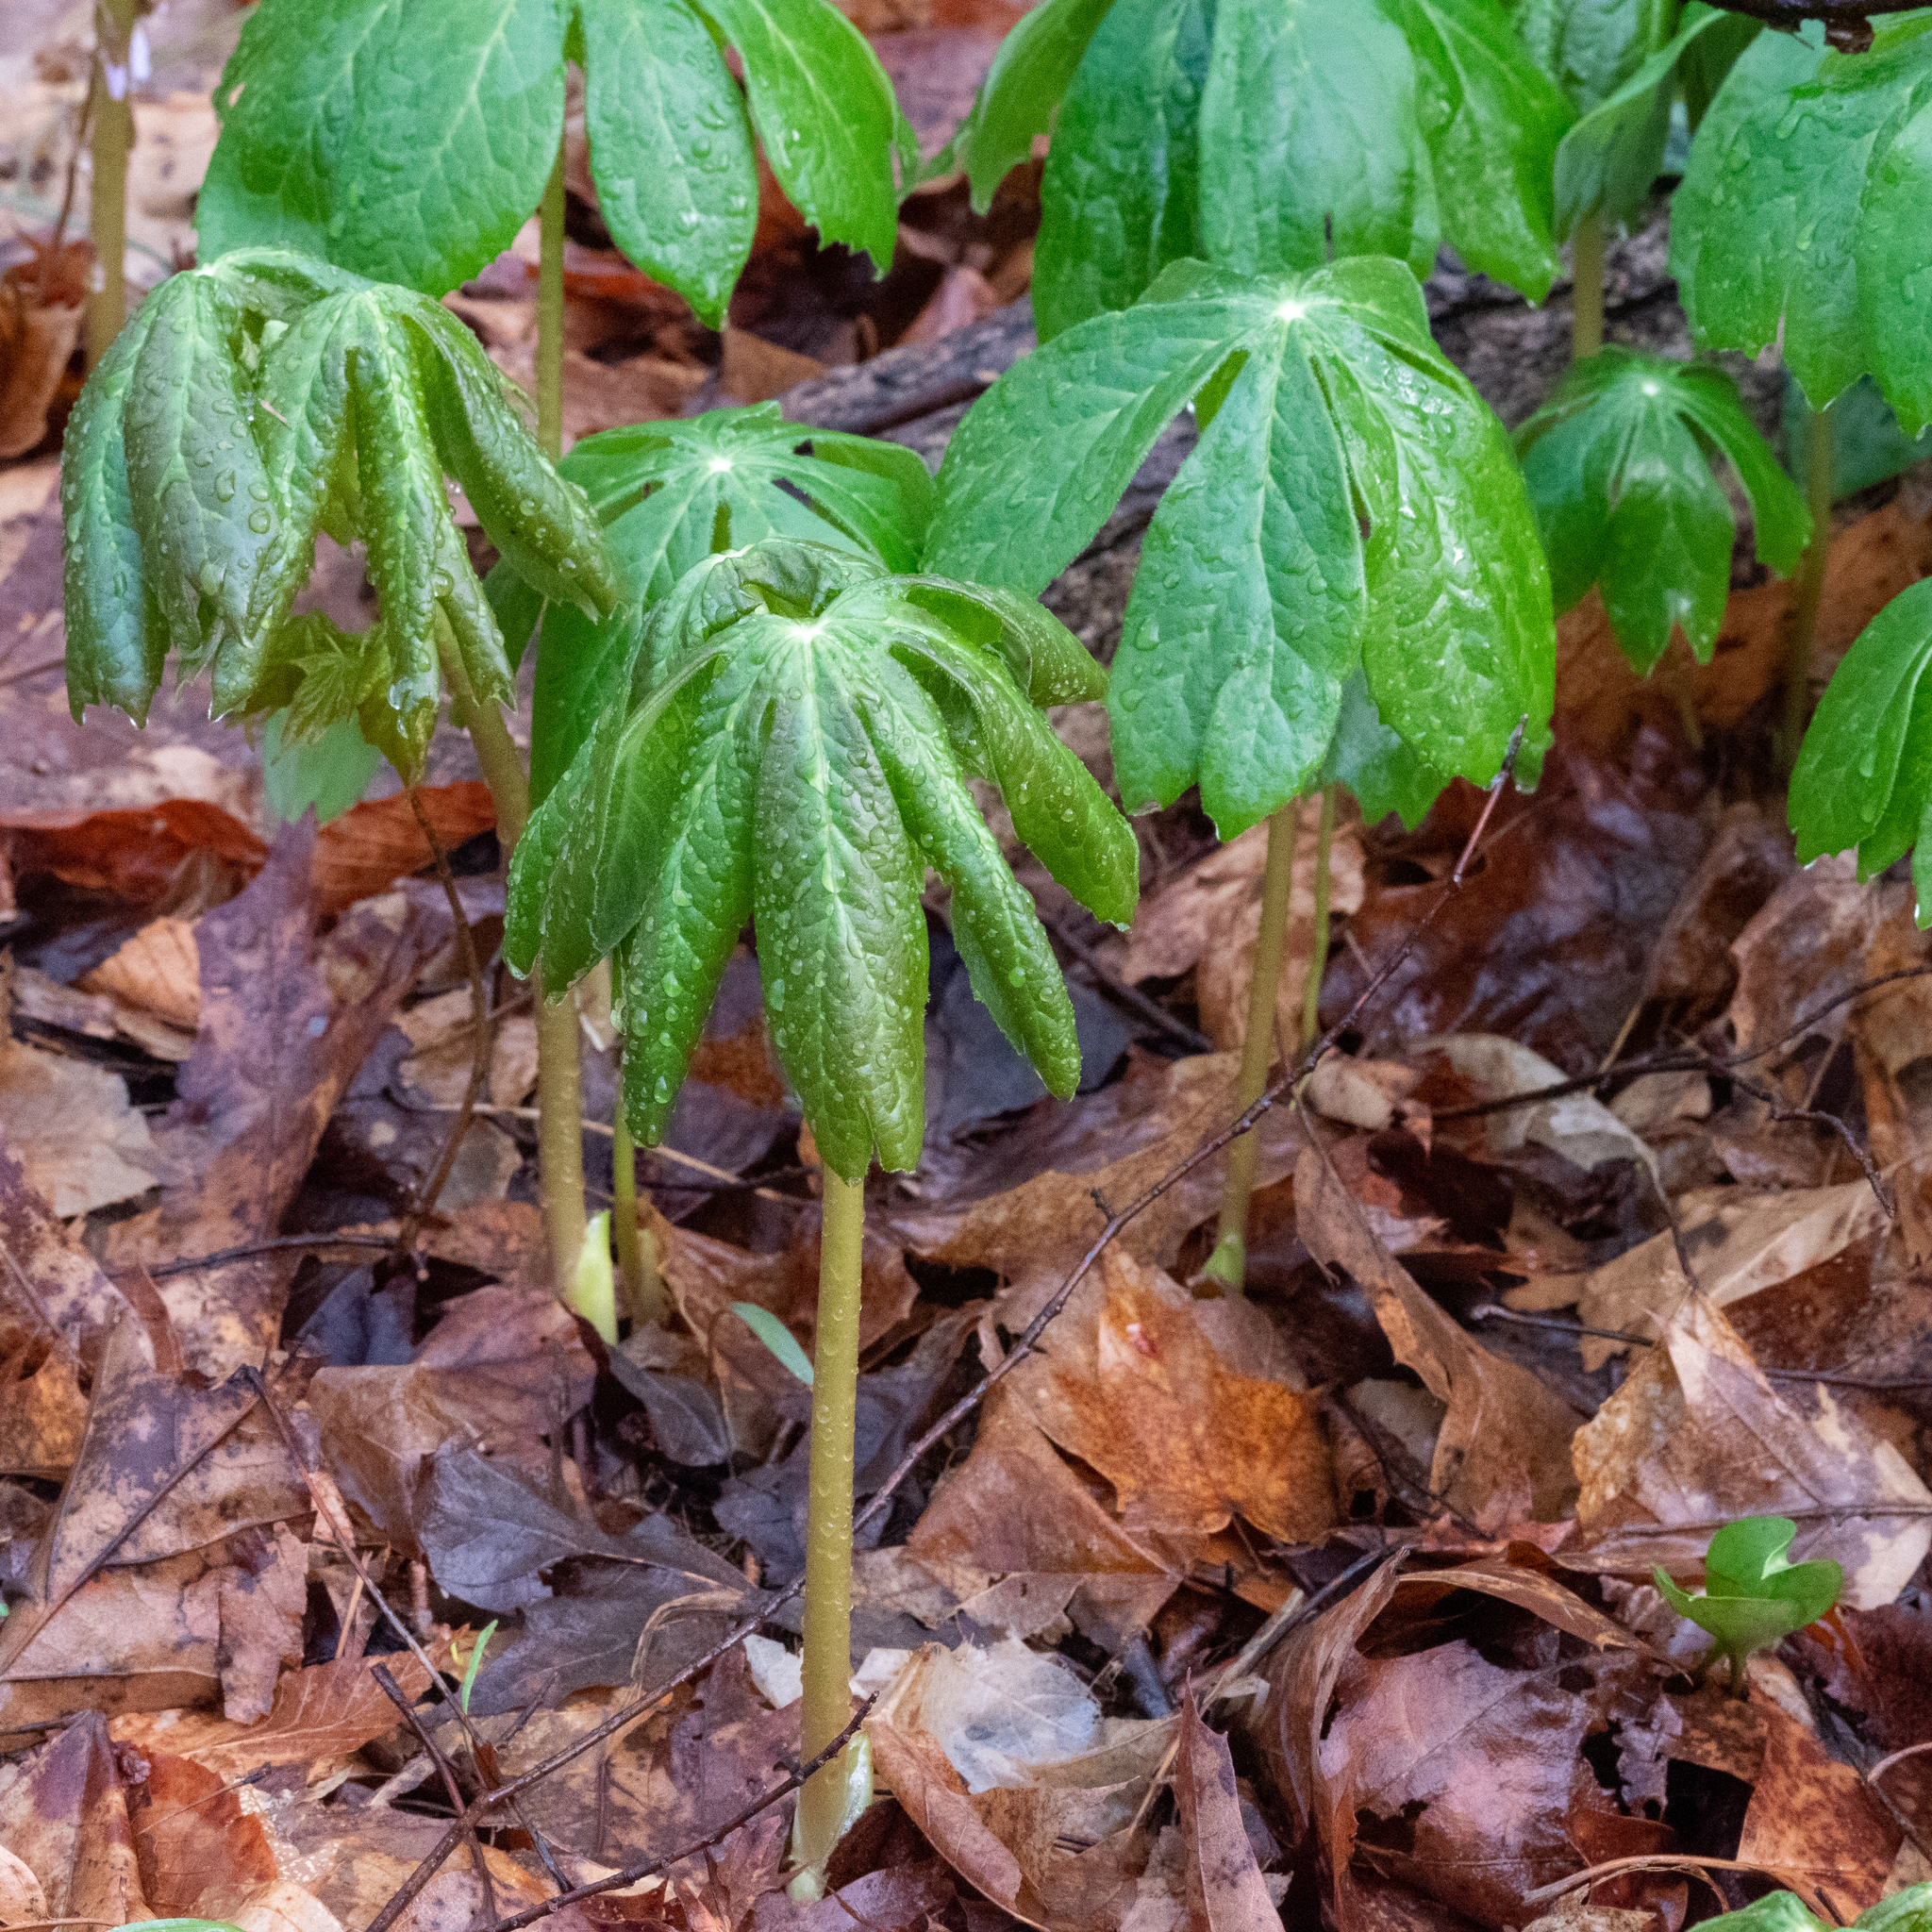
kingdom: Plantae
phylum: Tracheophyta
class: Magnoliopsida
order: Ranunculales
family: Berberidaceae
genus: Podophyllum
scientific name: Podophyllum peltatum
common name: Wild mandrake
